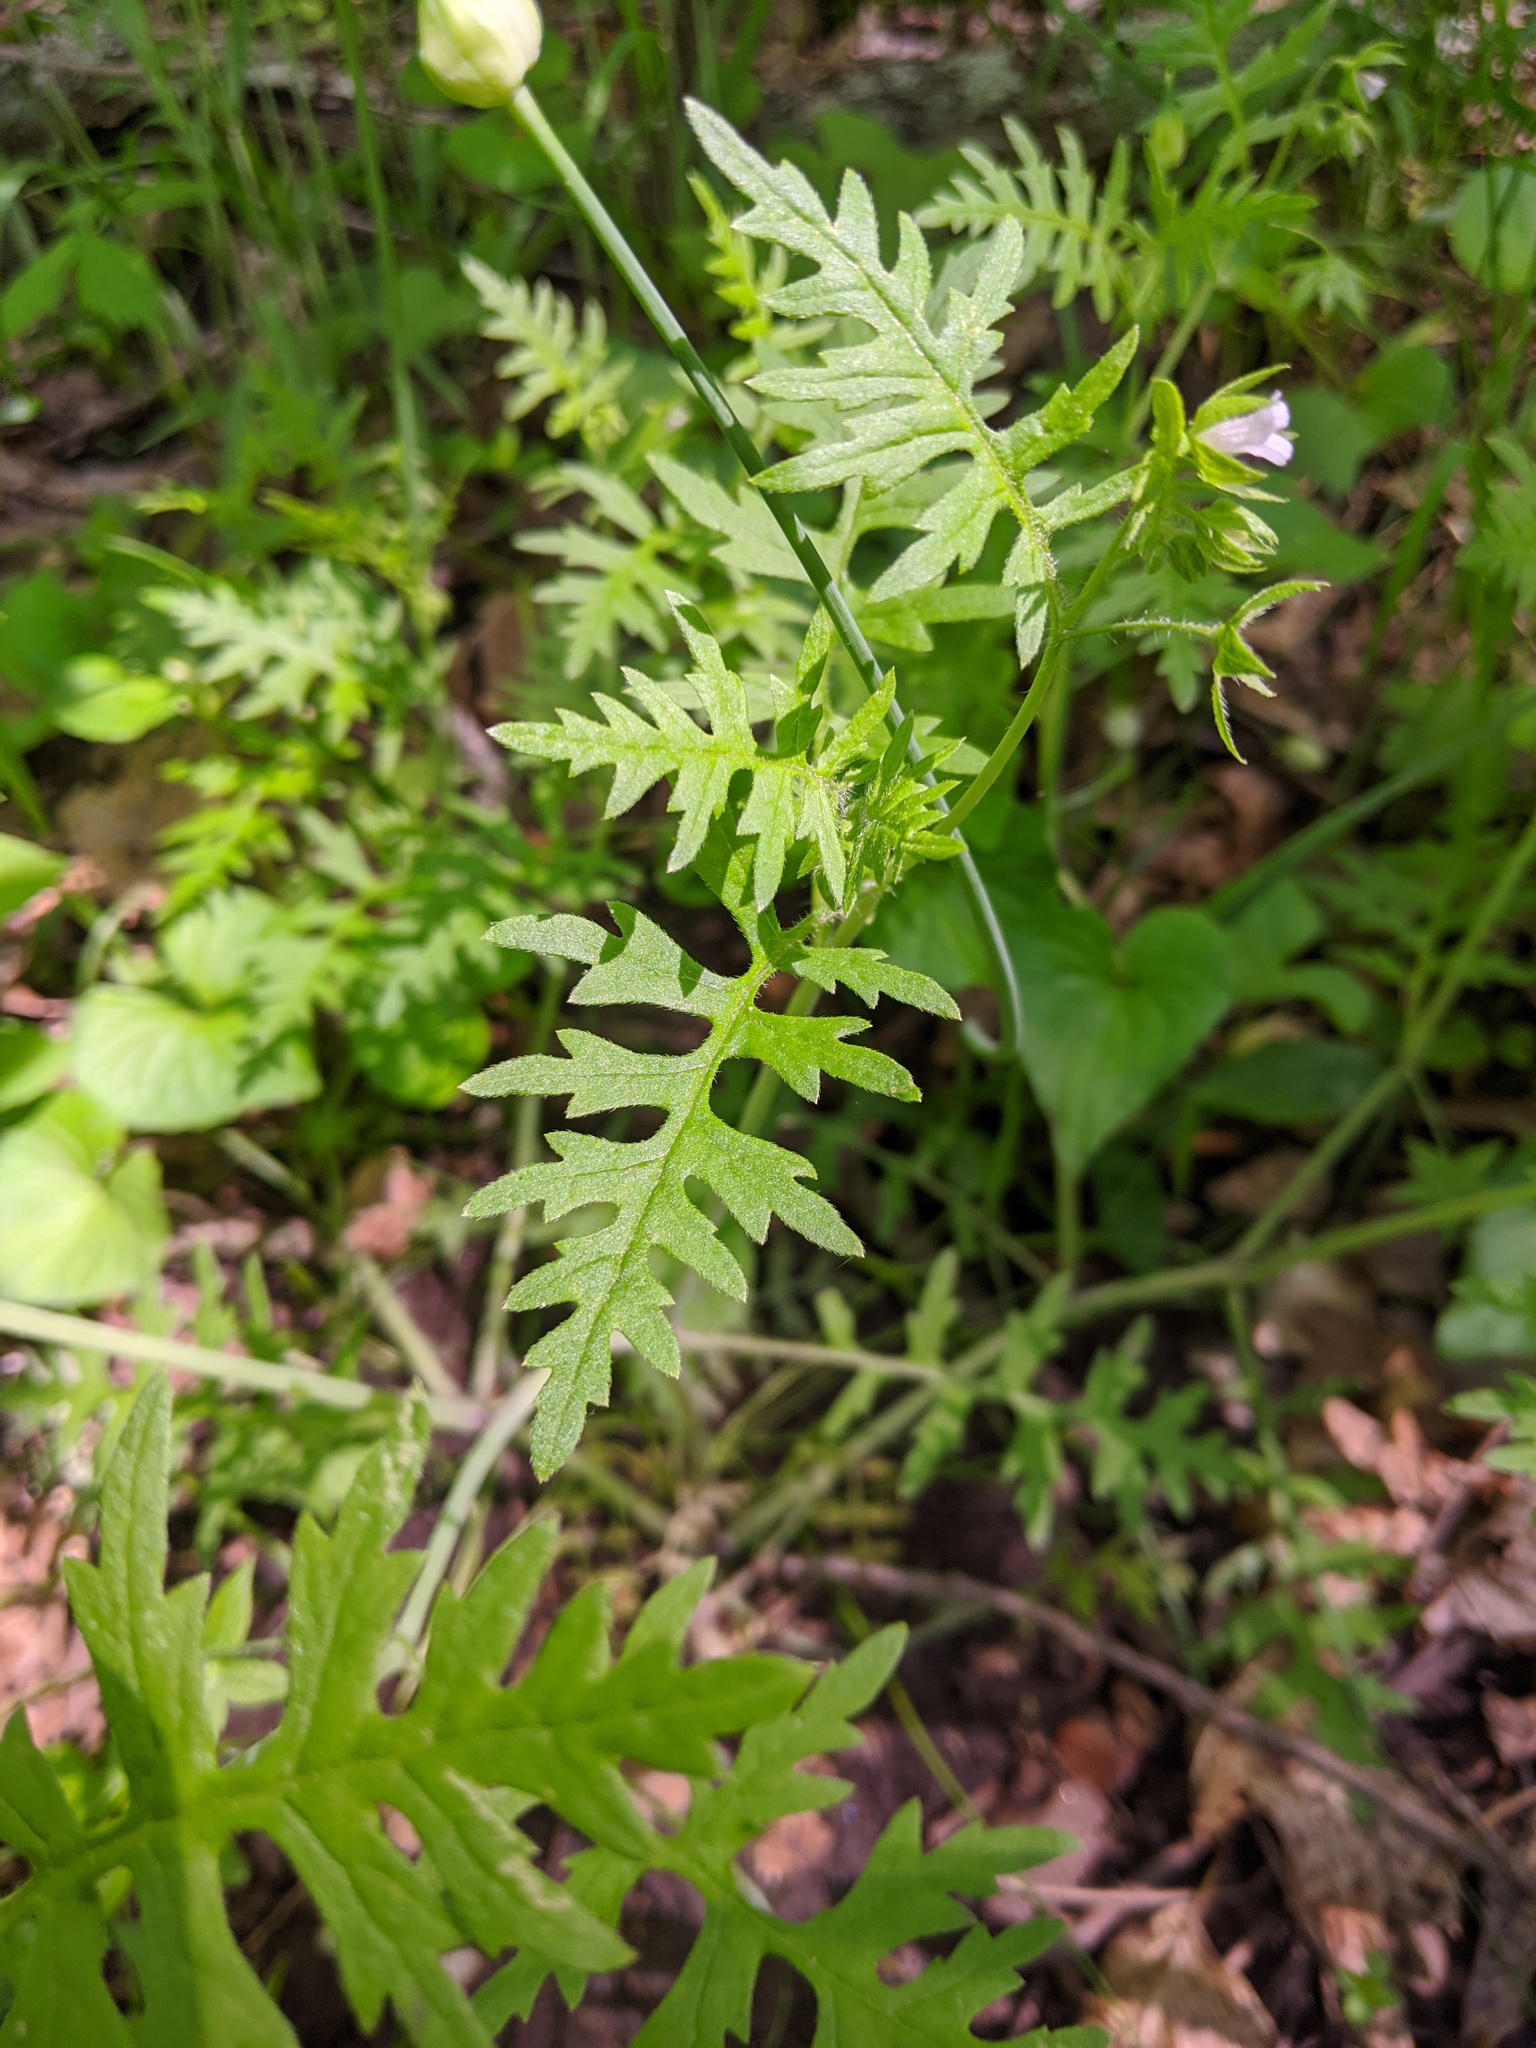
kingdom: Plantae
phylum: Tracheophyta
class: Magnoliopsida
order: Boraginales
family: Hydrophyllaceae
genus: Ellisia
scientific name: Ellisia nyctelea
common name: Aunt lucy
